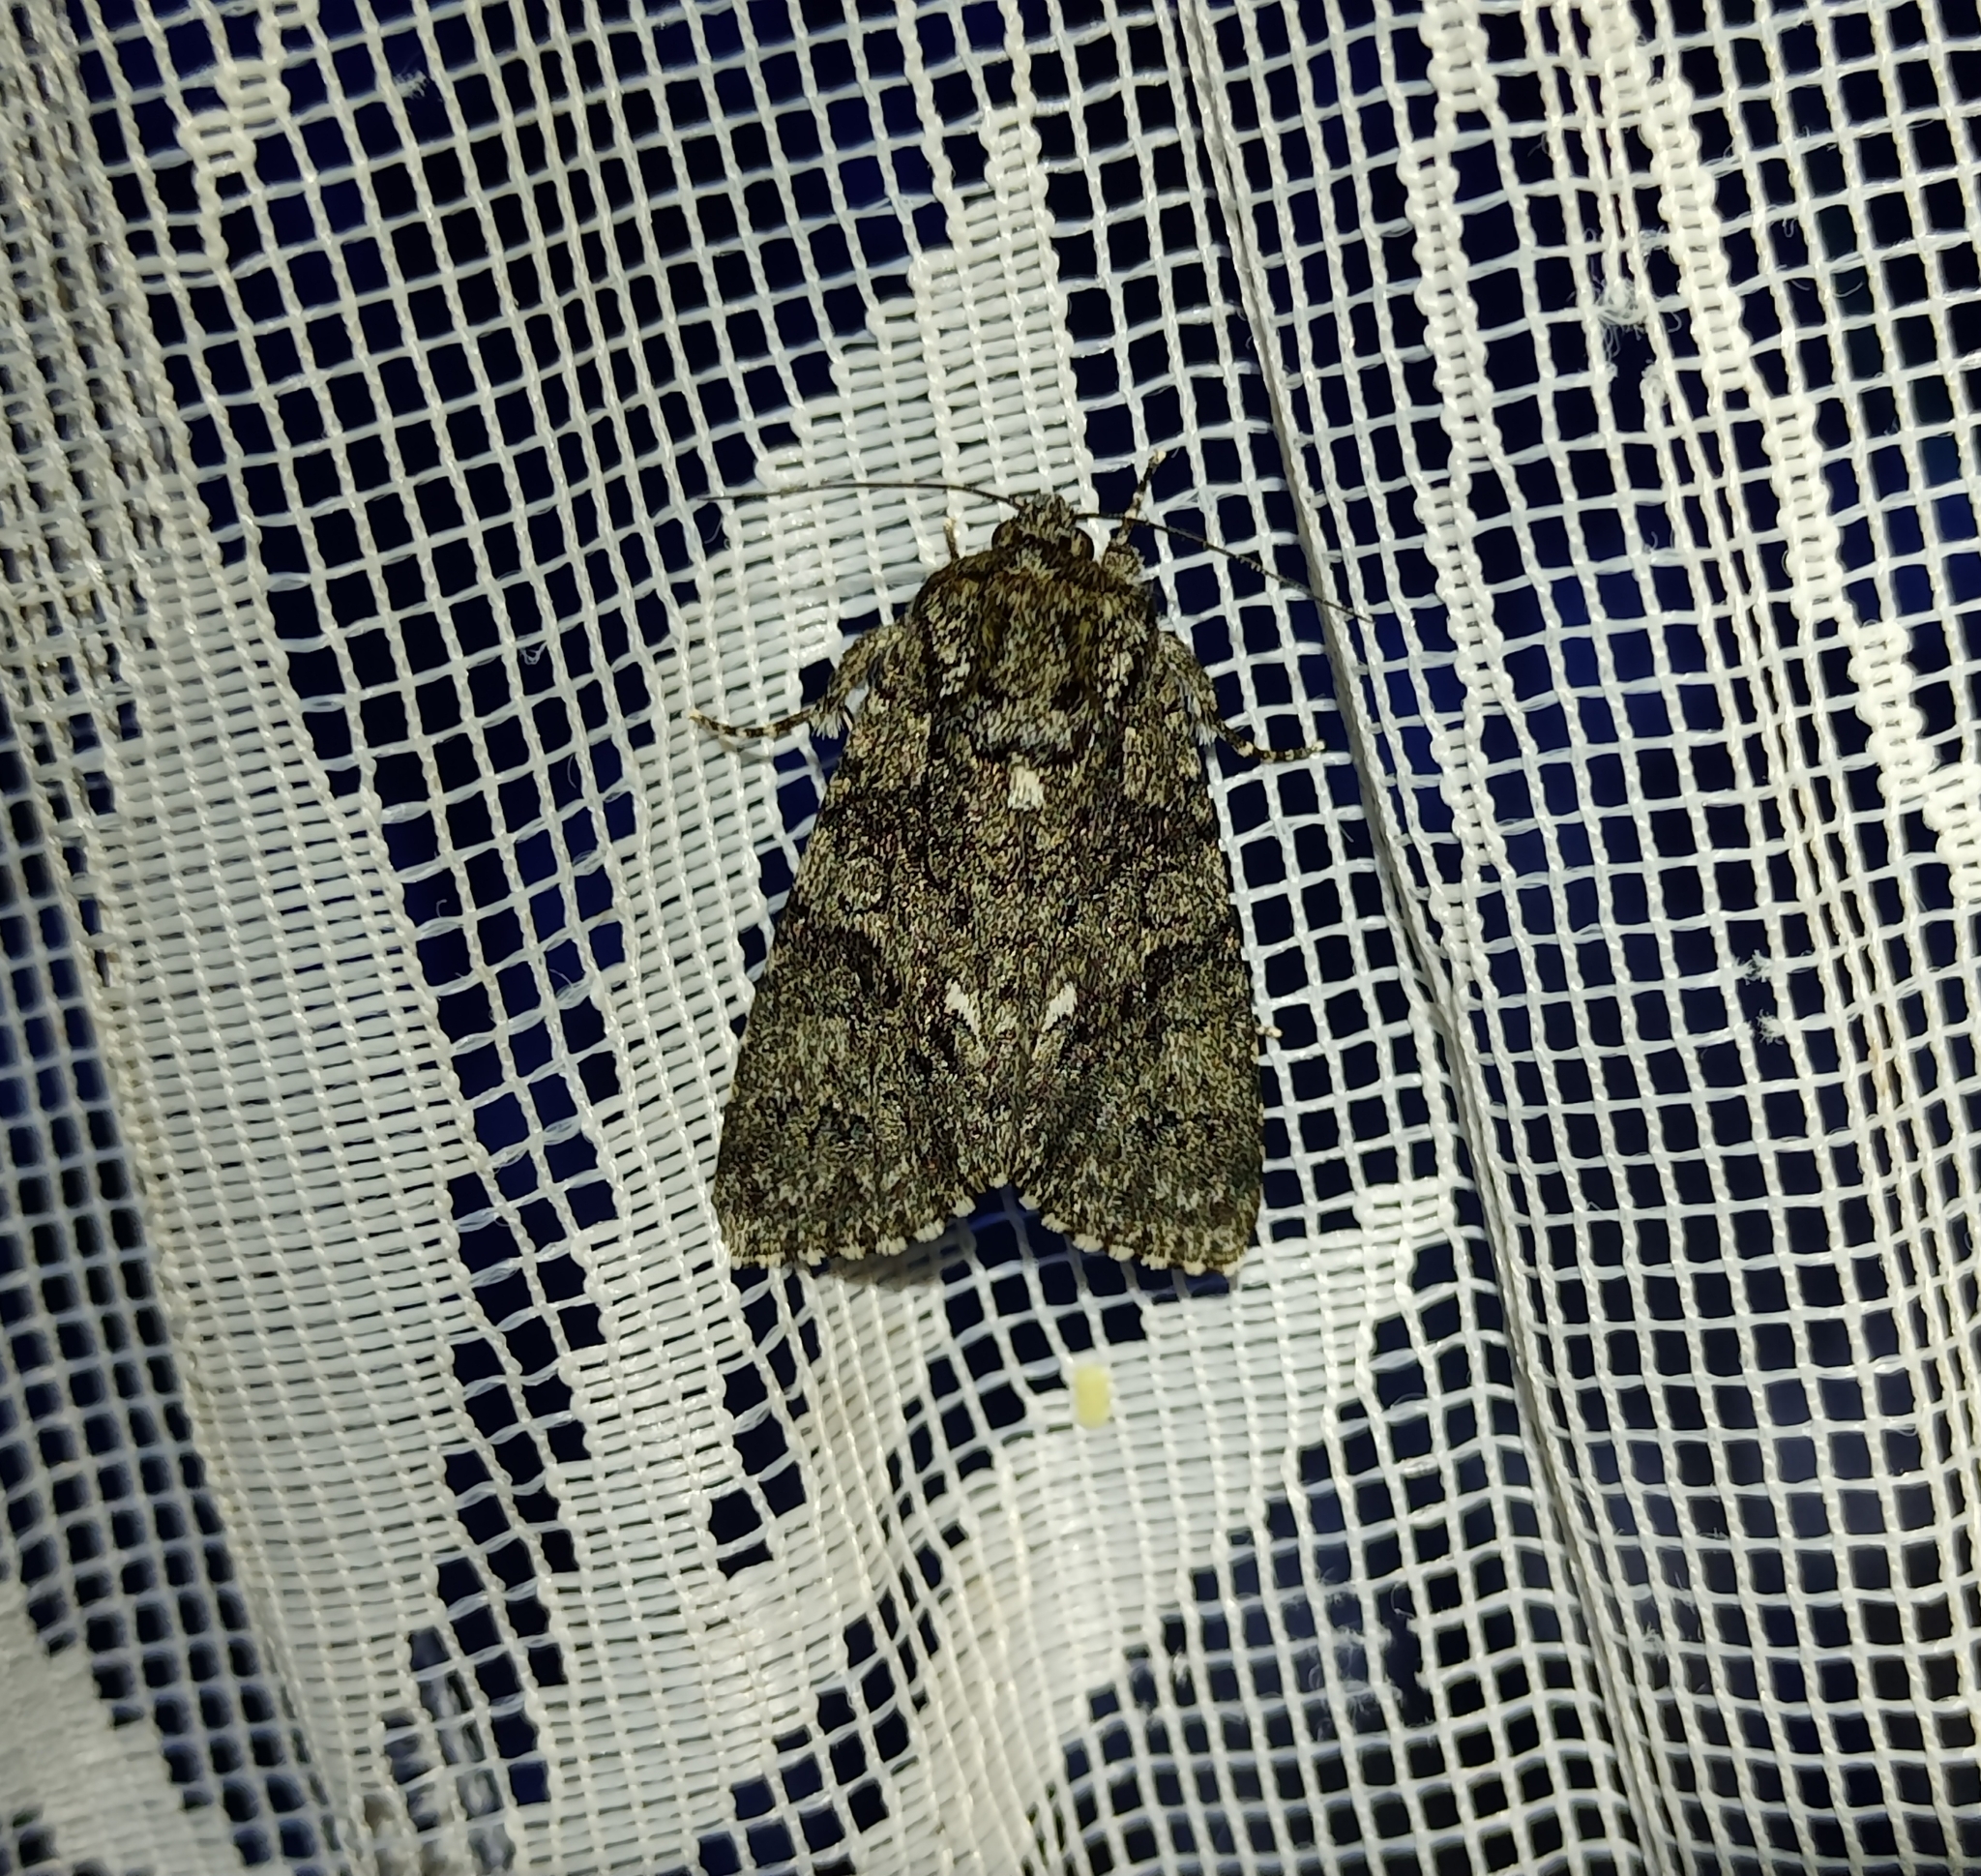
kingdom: Animalia
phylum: Arthropoda
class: Insecta
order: Lepidoptera
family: Noctuidae
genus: Acronicta
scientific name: Acronicta rumicis
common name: Knot grass
